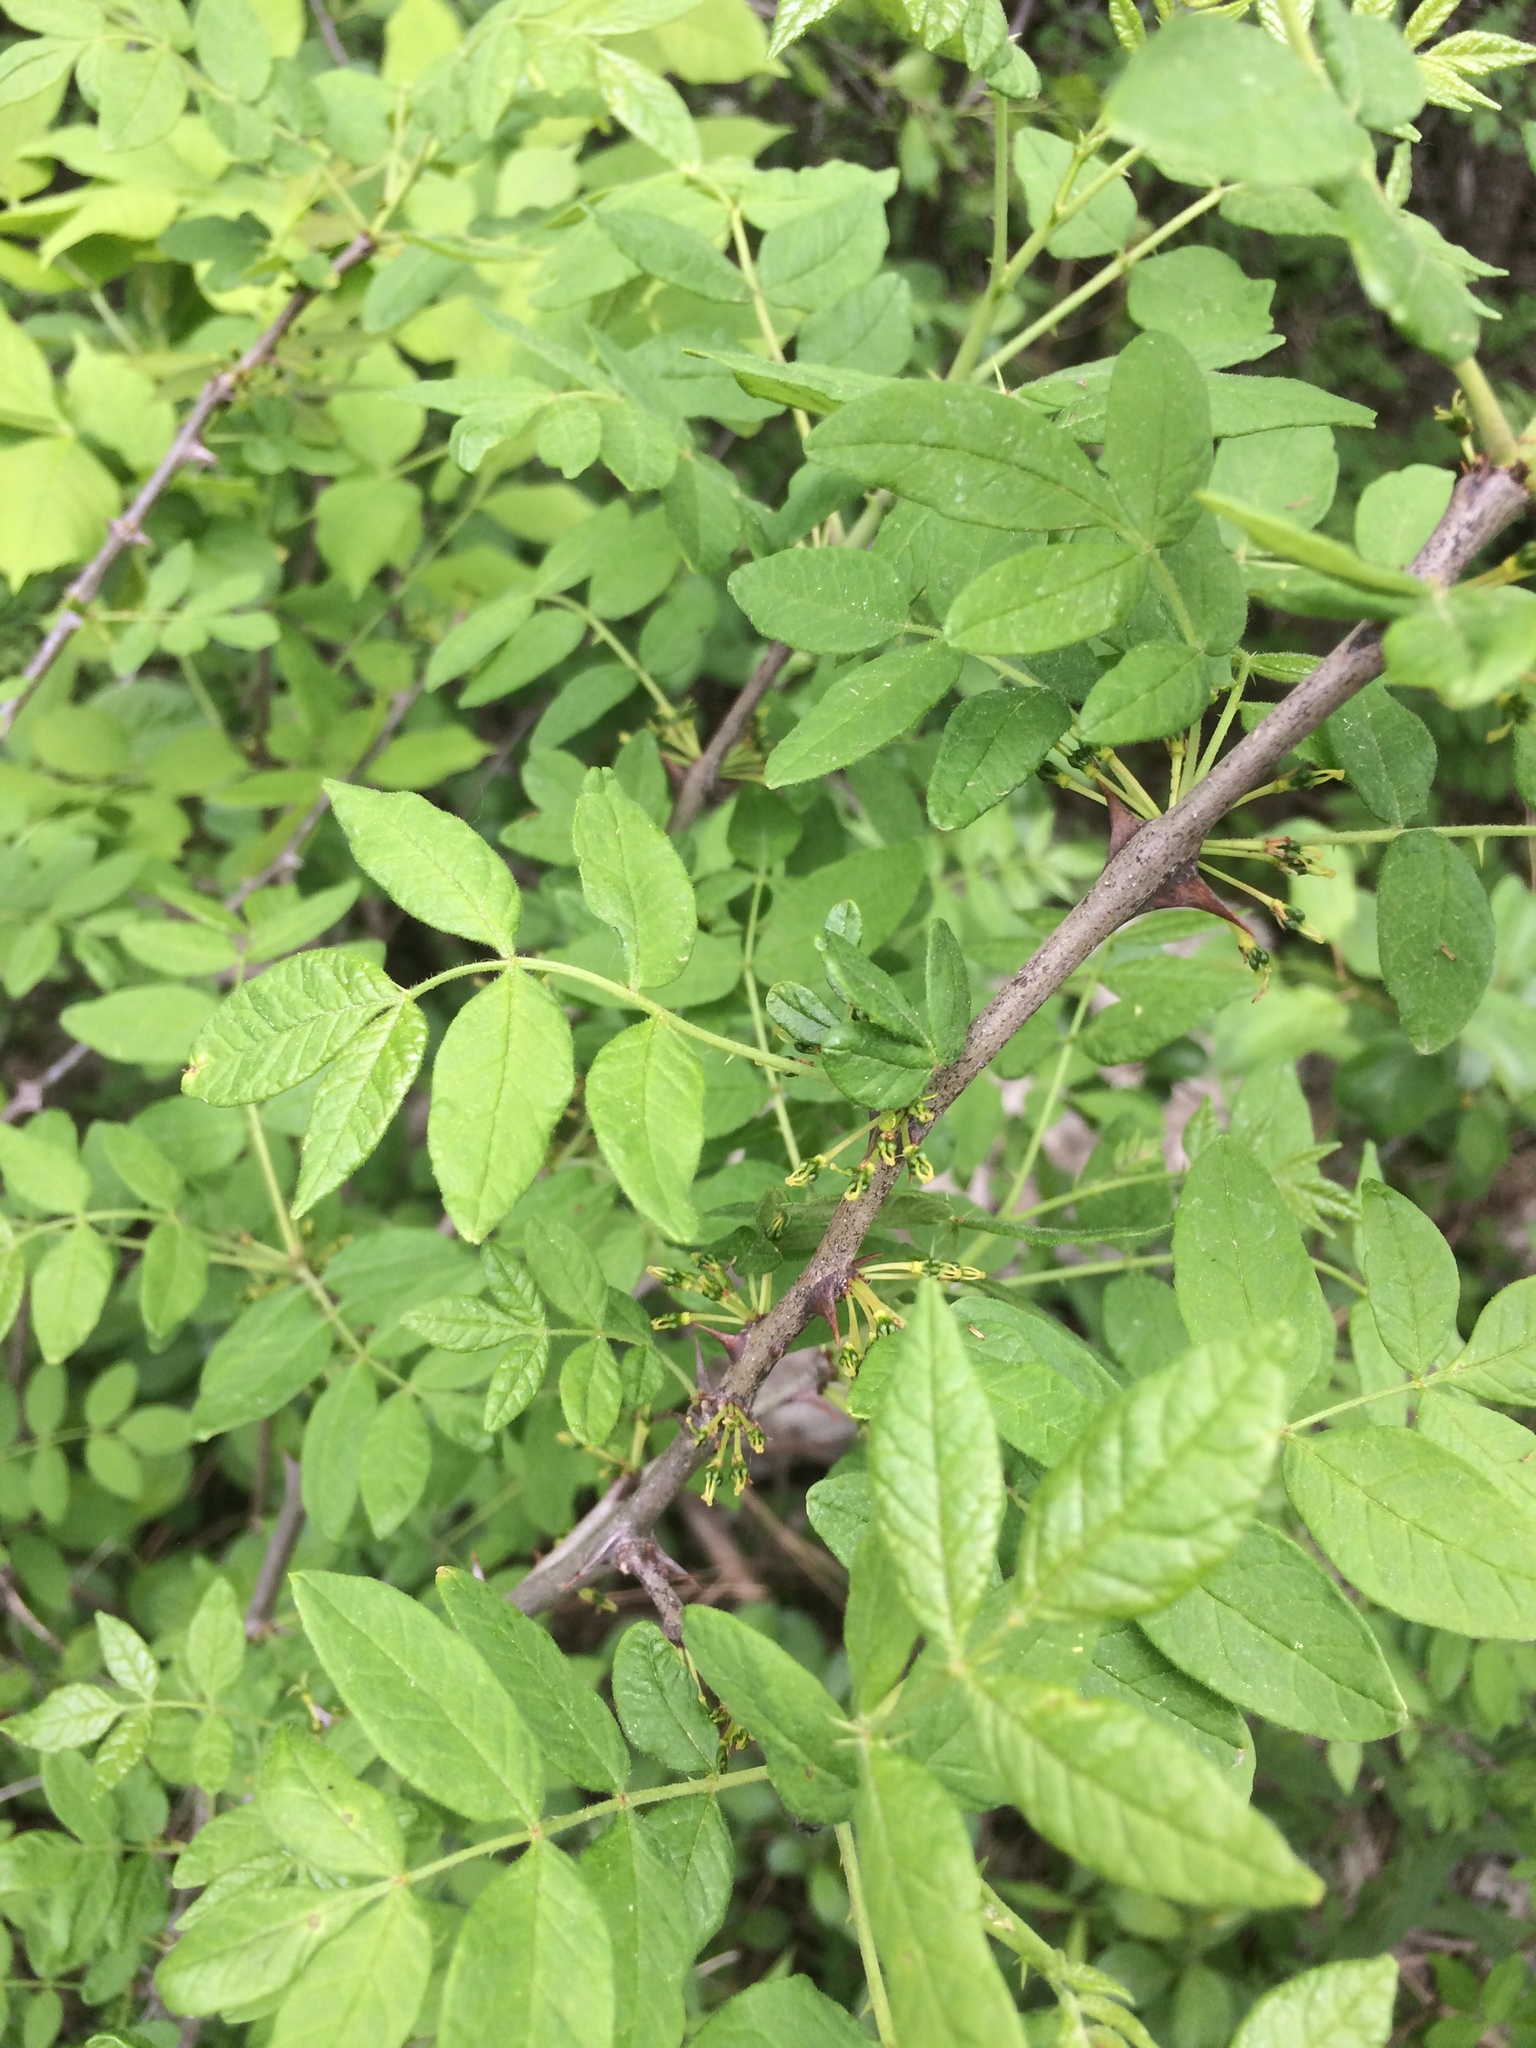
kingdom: Plantae
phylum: Tracheophyta
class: Magnoliopsida
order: Sapindales
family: Rutaceae
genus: Zanthoxylum
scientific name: Zanthoxylum americanum
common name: Northern prickly-ash
